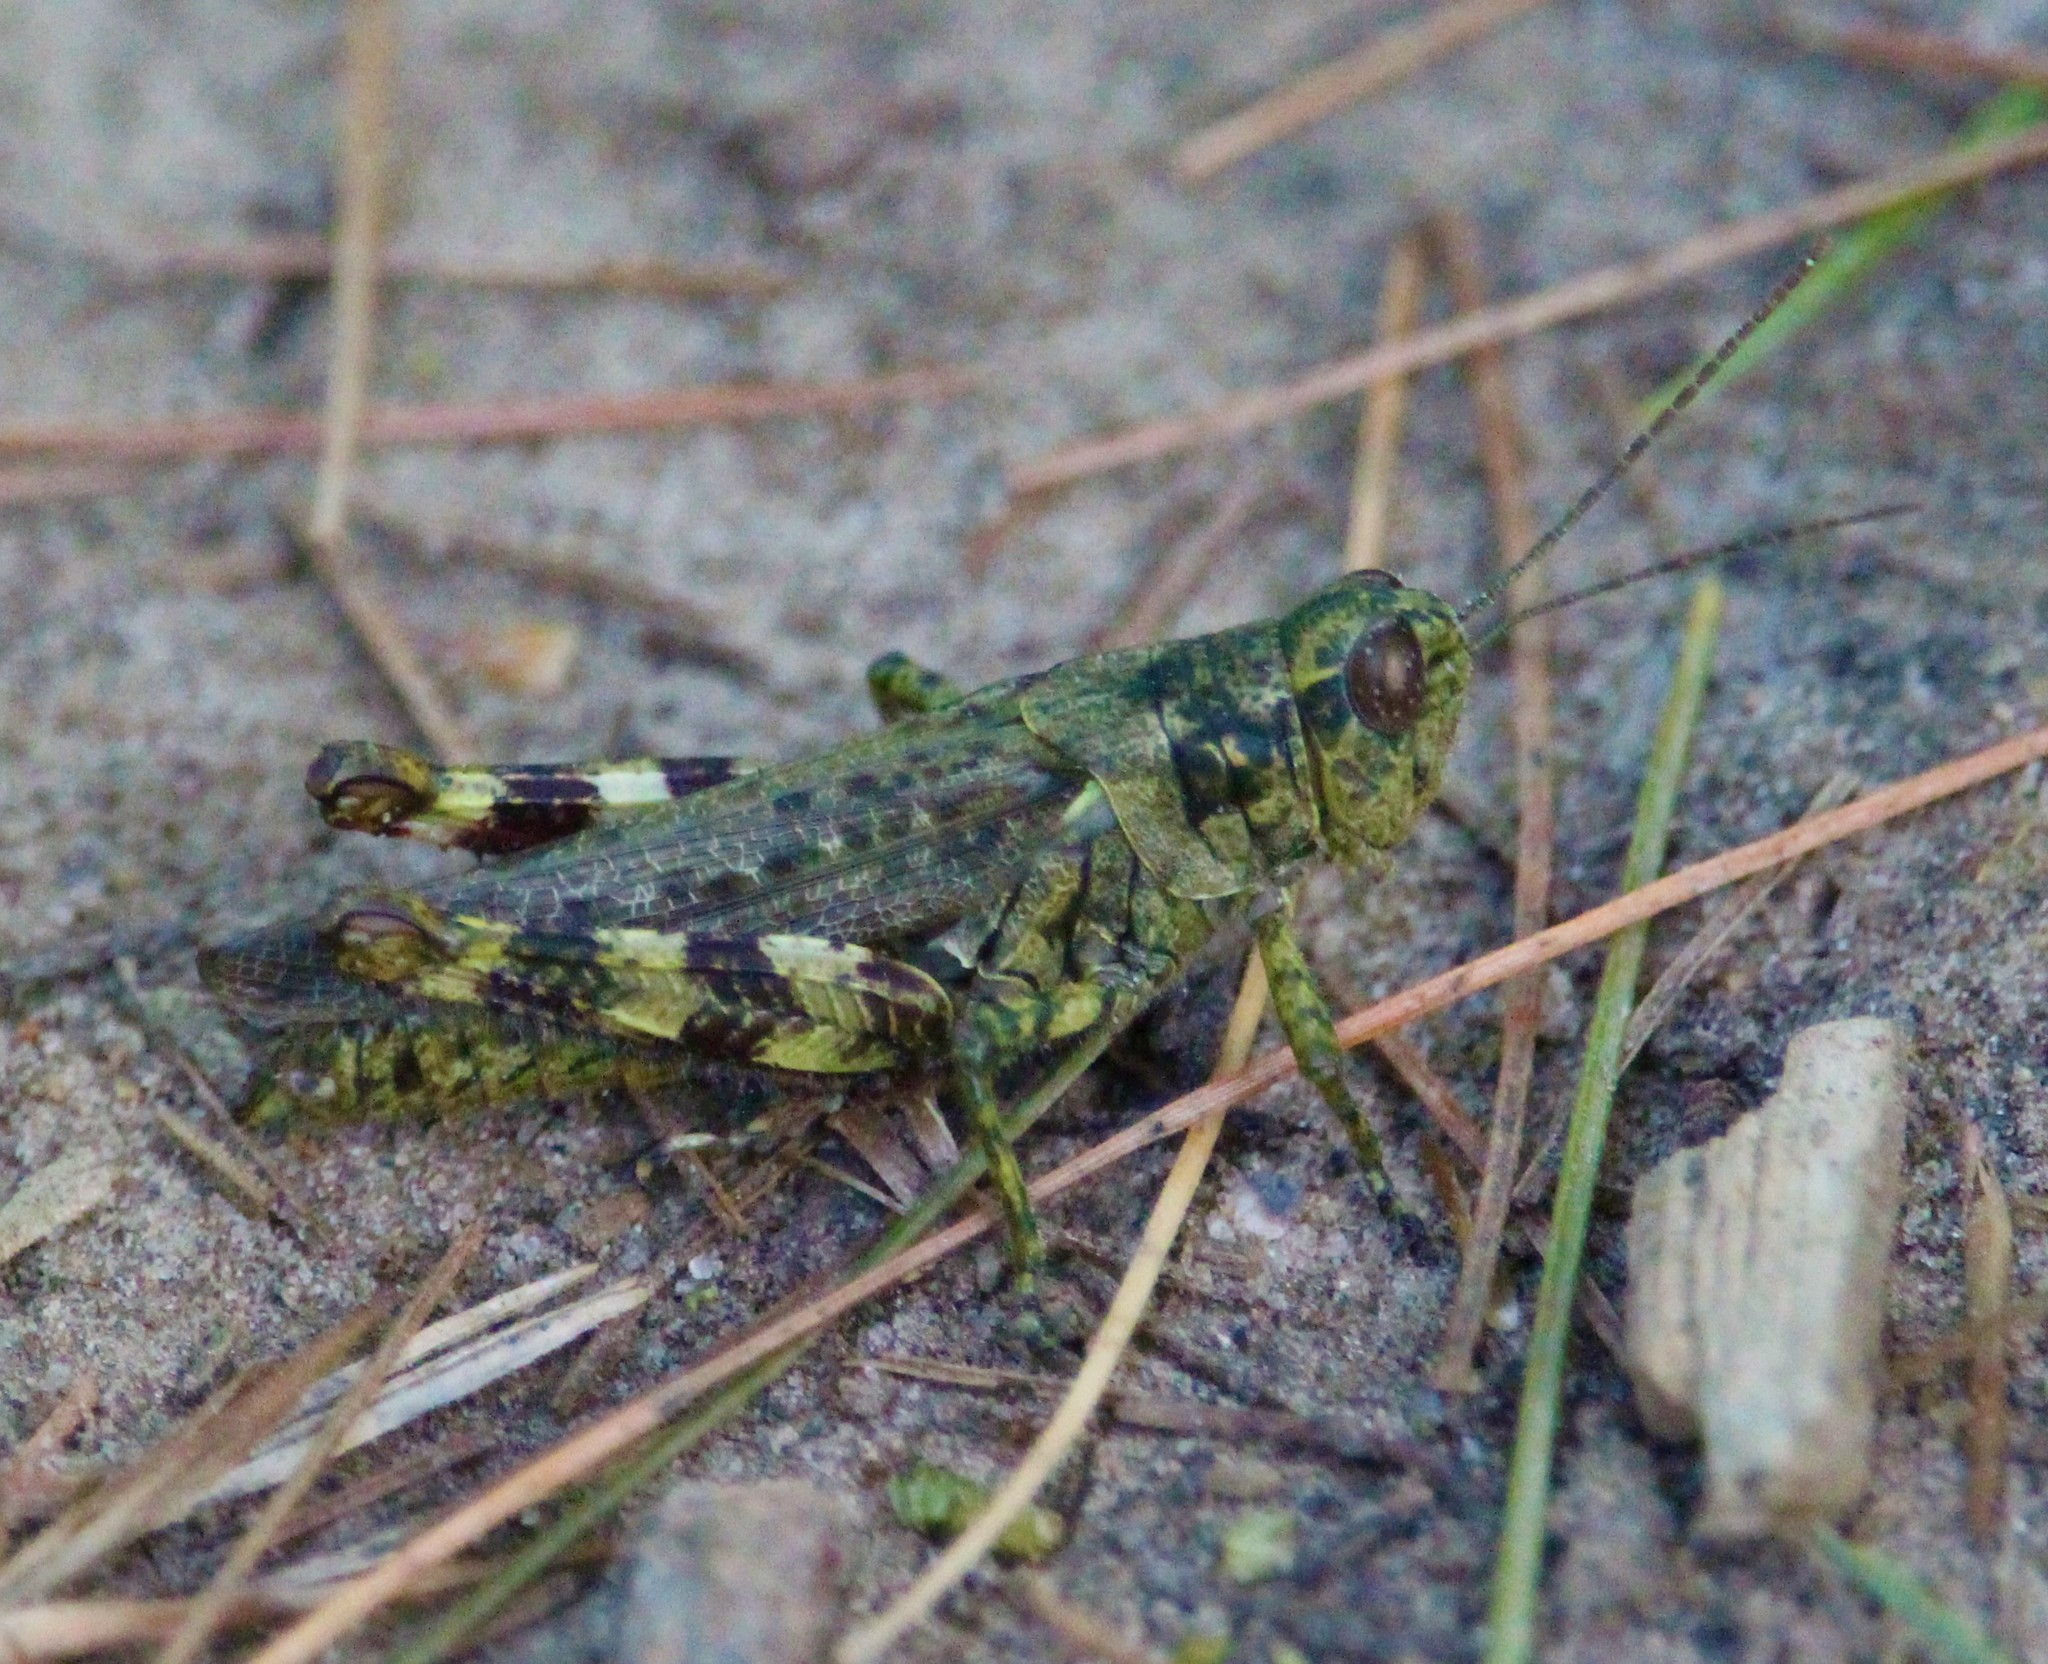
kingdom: Animalia
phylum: Arthropoda
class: Insecta
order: Orthoptera
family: Acrididae
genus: Melanoplus
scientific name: Melanoplus punctulatus
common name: Pine-tree spur-throat grasshopper
